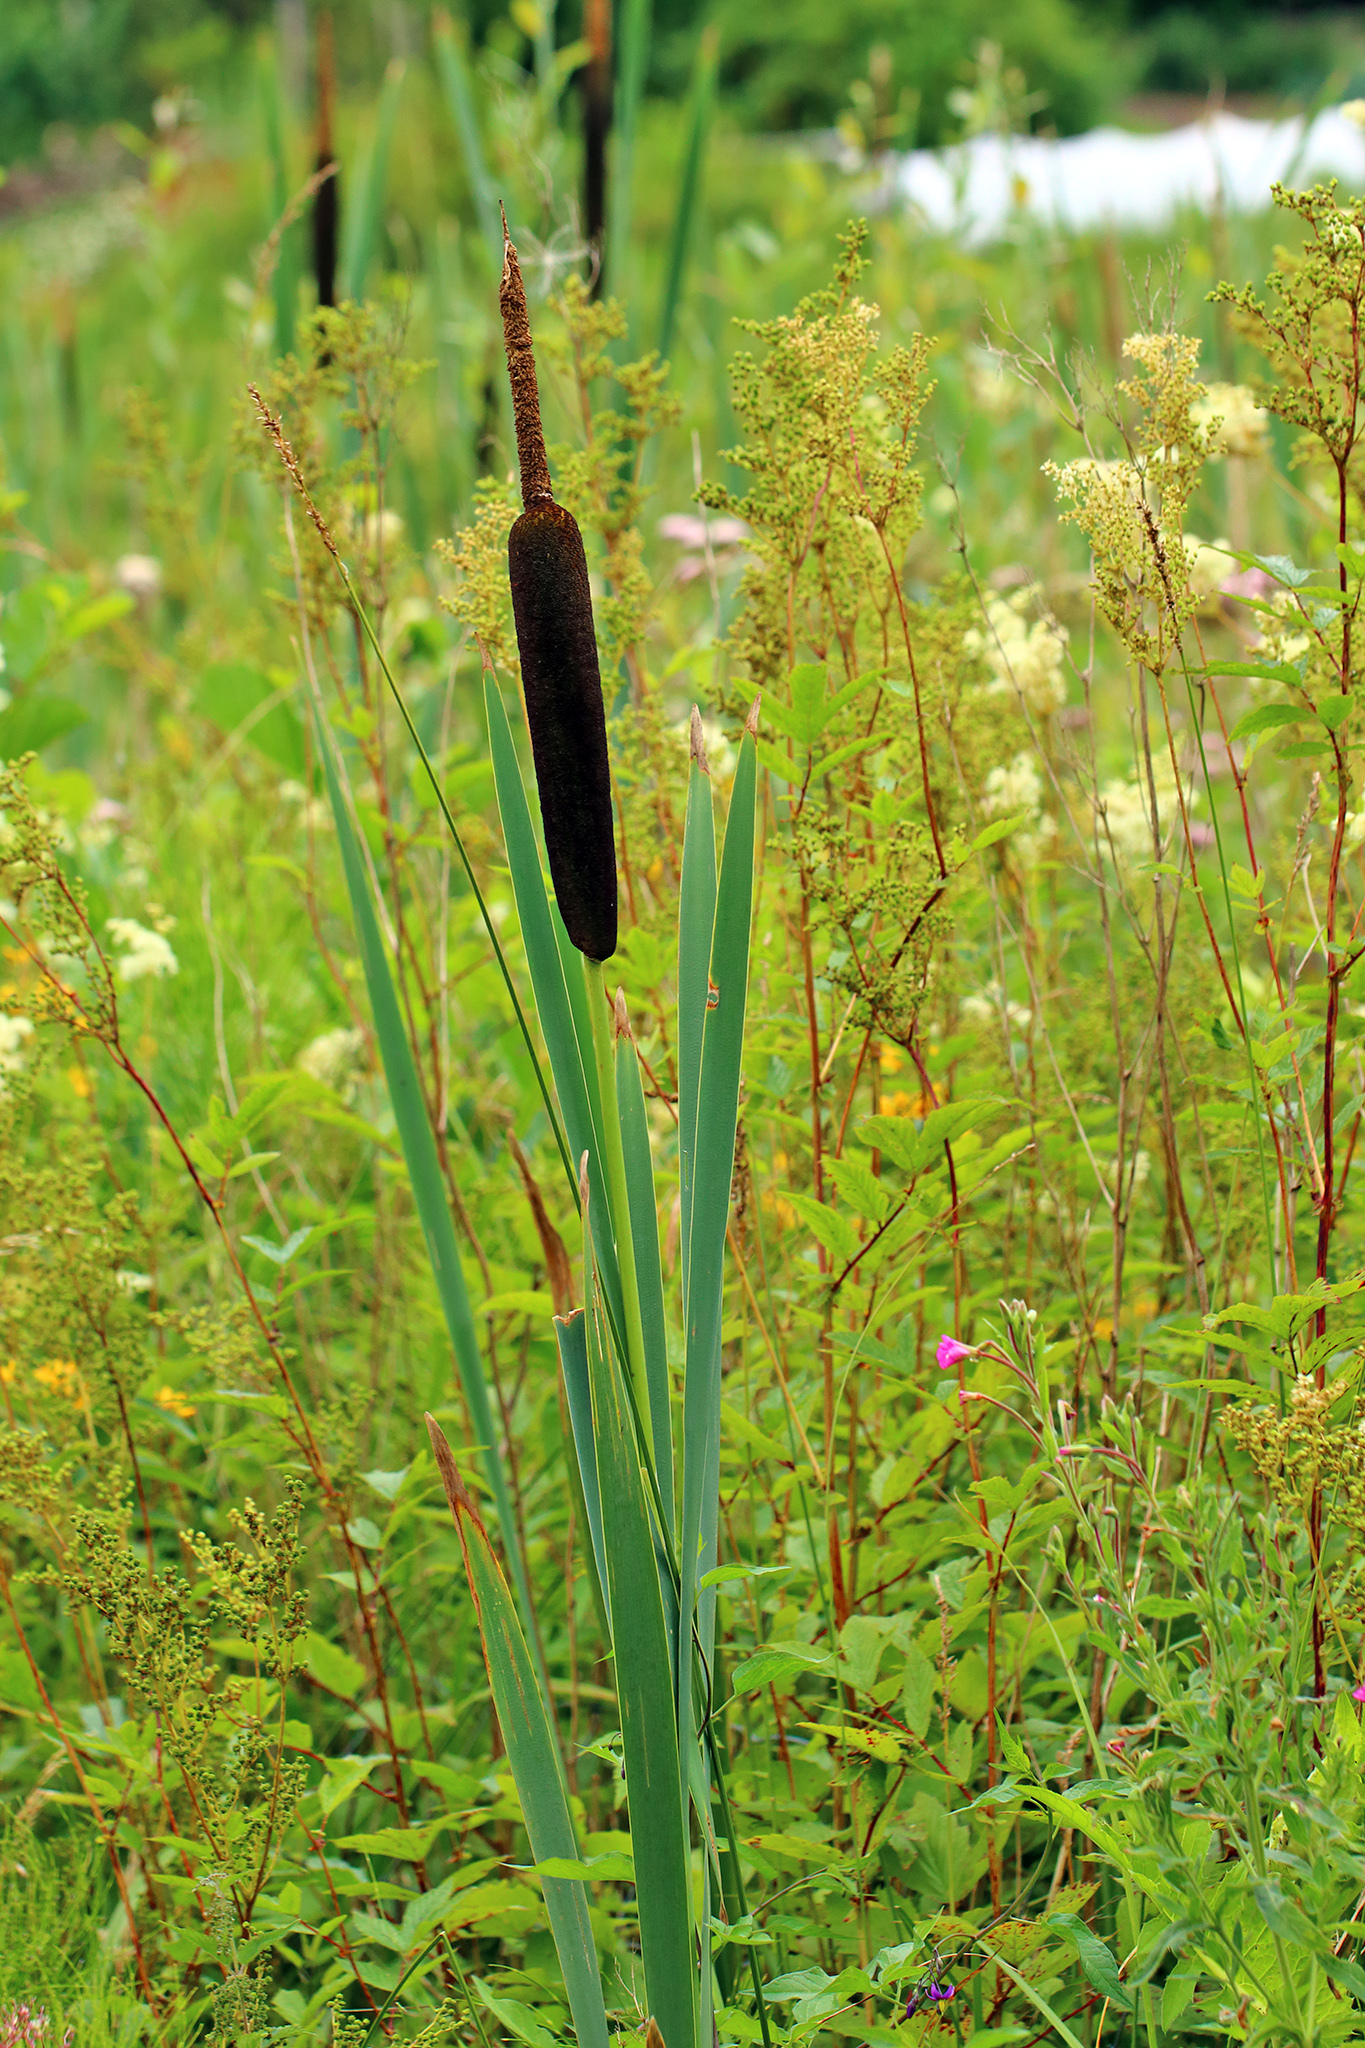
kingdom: Plantae
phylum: Tracheophyta
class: Liliopsida
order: Poales
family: Typhaceae
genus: Typha
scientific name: Typha latifolia
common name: Broadleaf cattail
